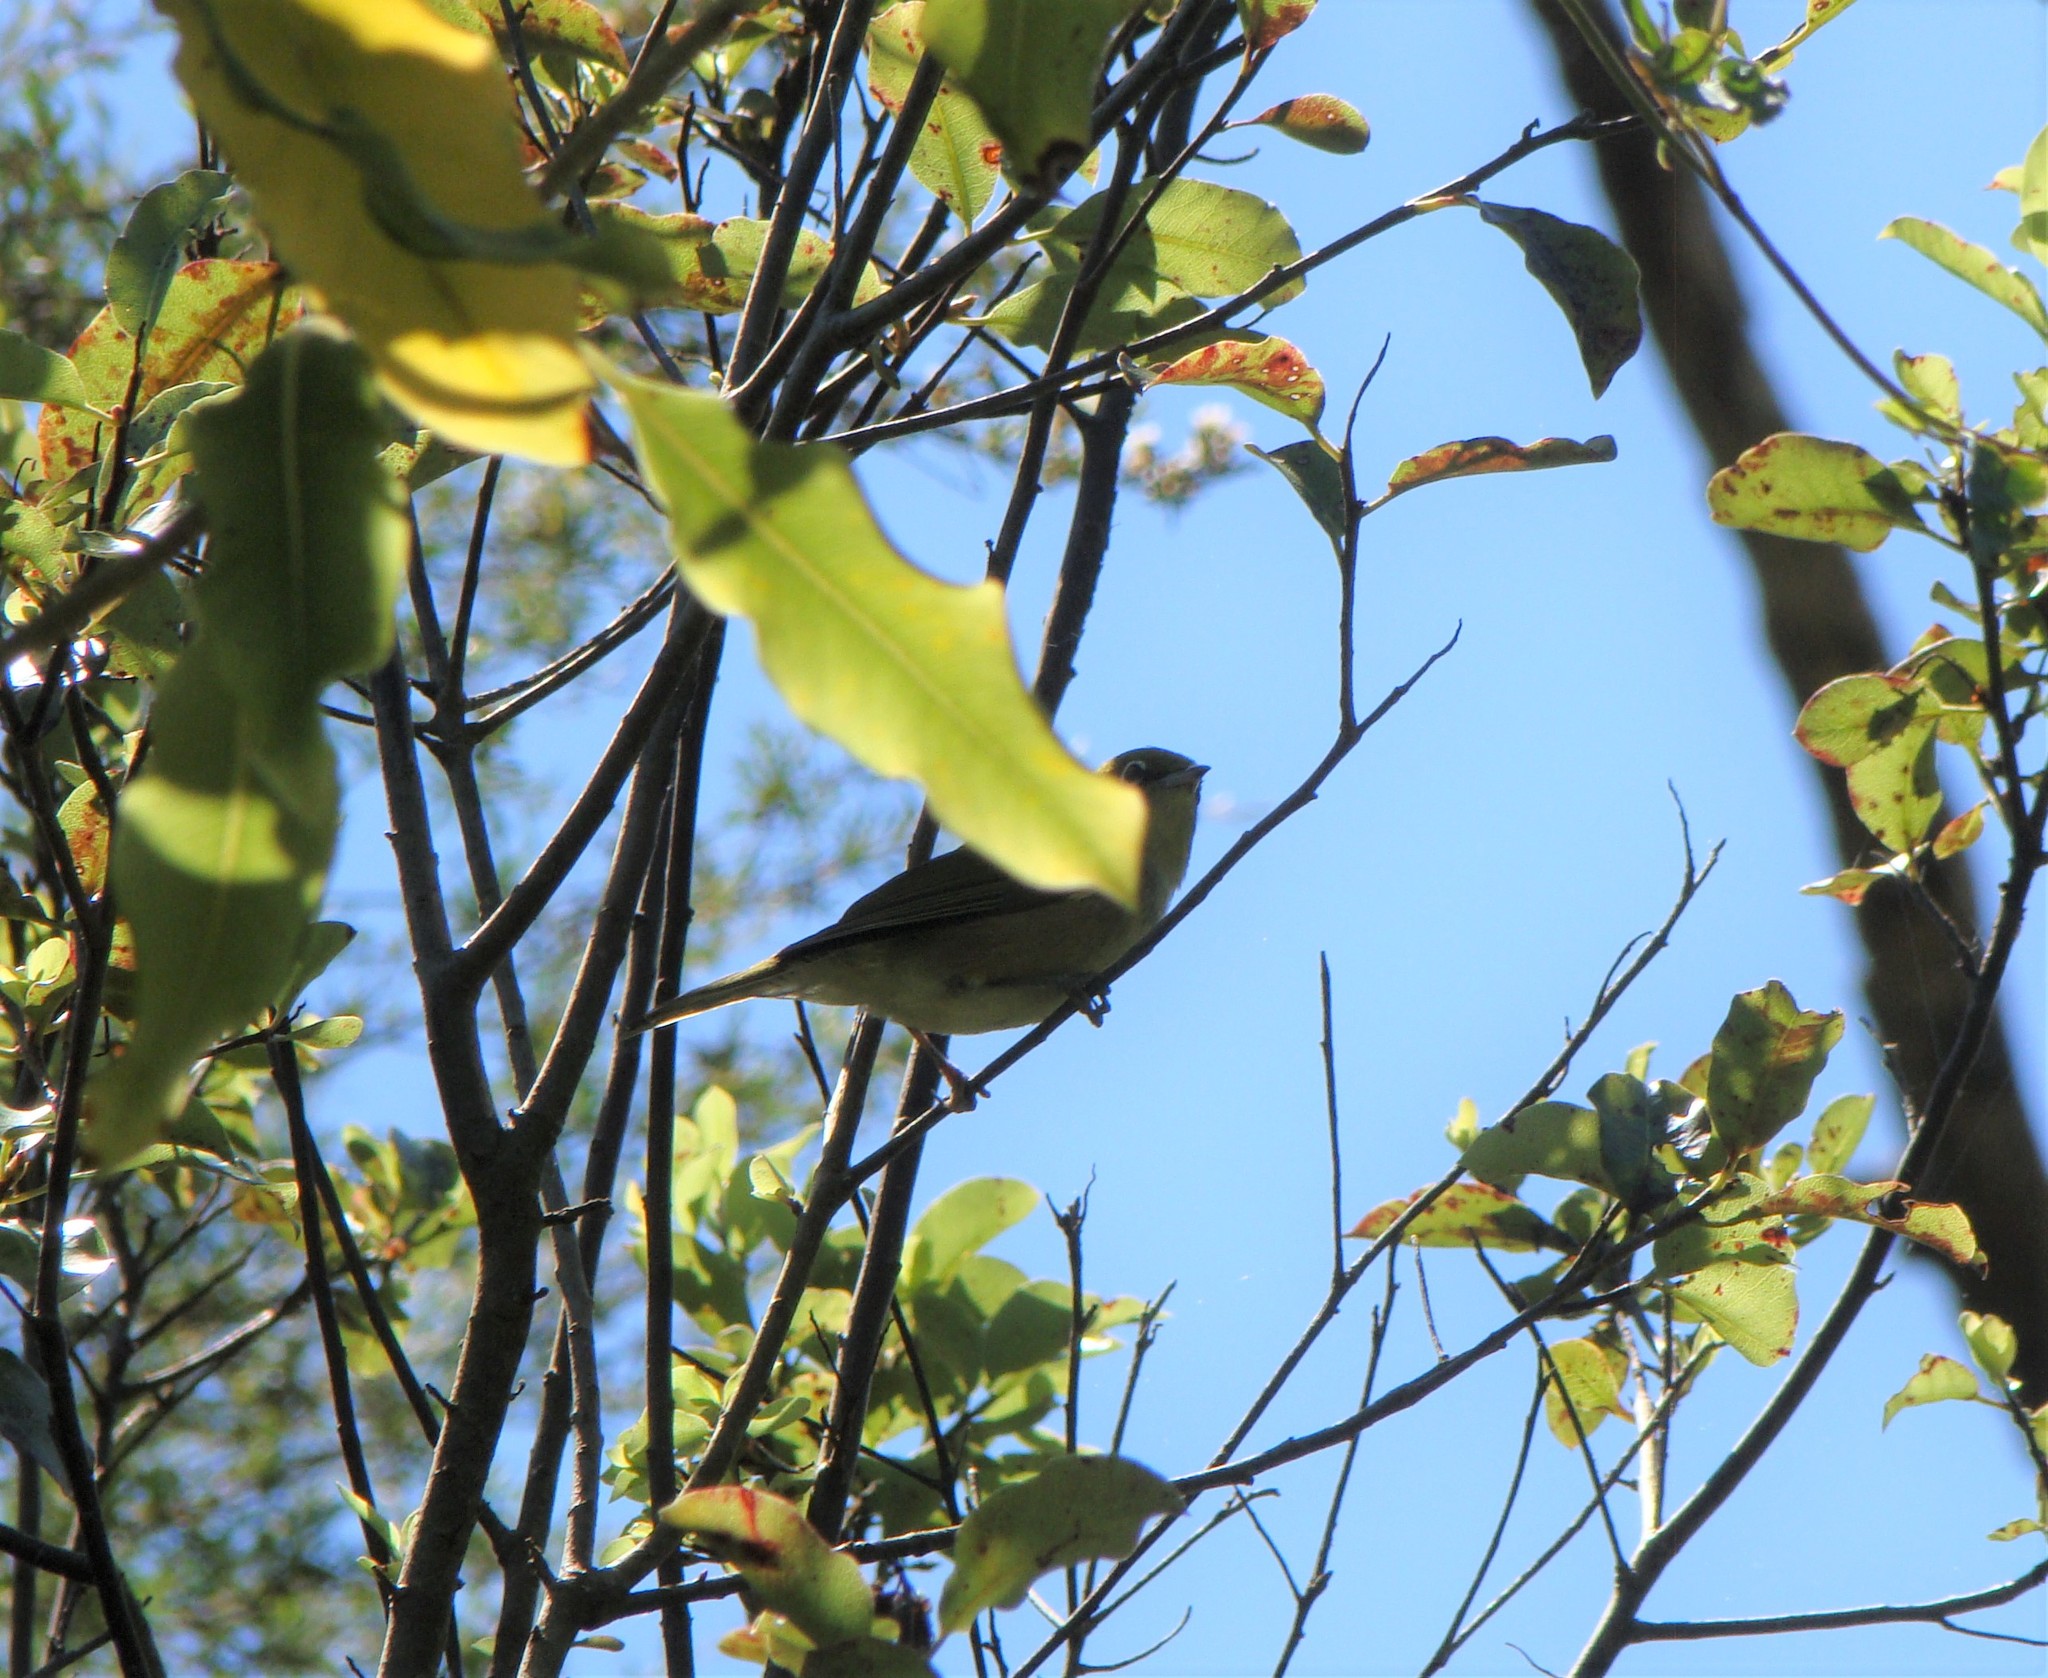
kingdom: Animalia
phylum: Chordata
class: Aves
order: Passeriformes
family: Zosteropidae
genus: Zosterops
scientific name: Zosterops lateralis
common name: Silvereye
